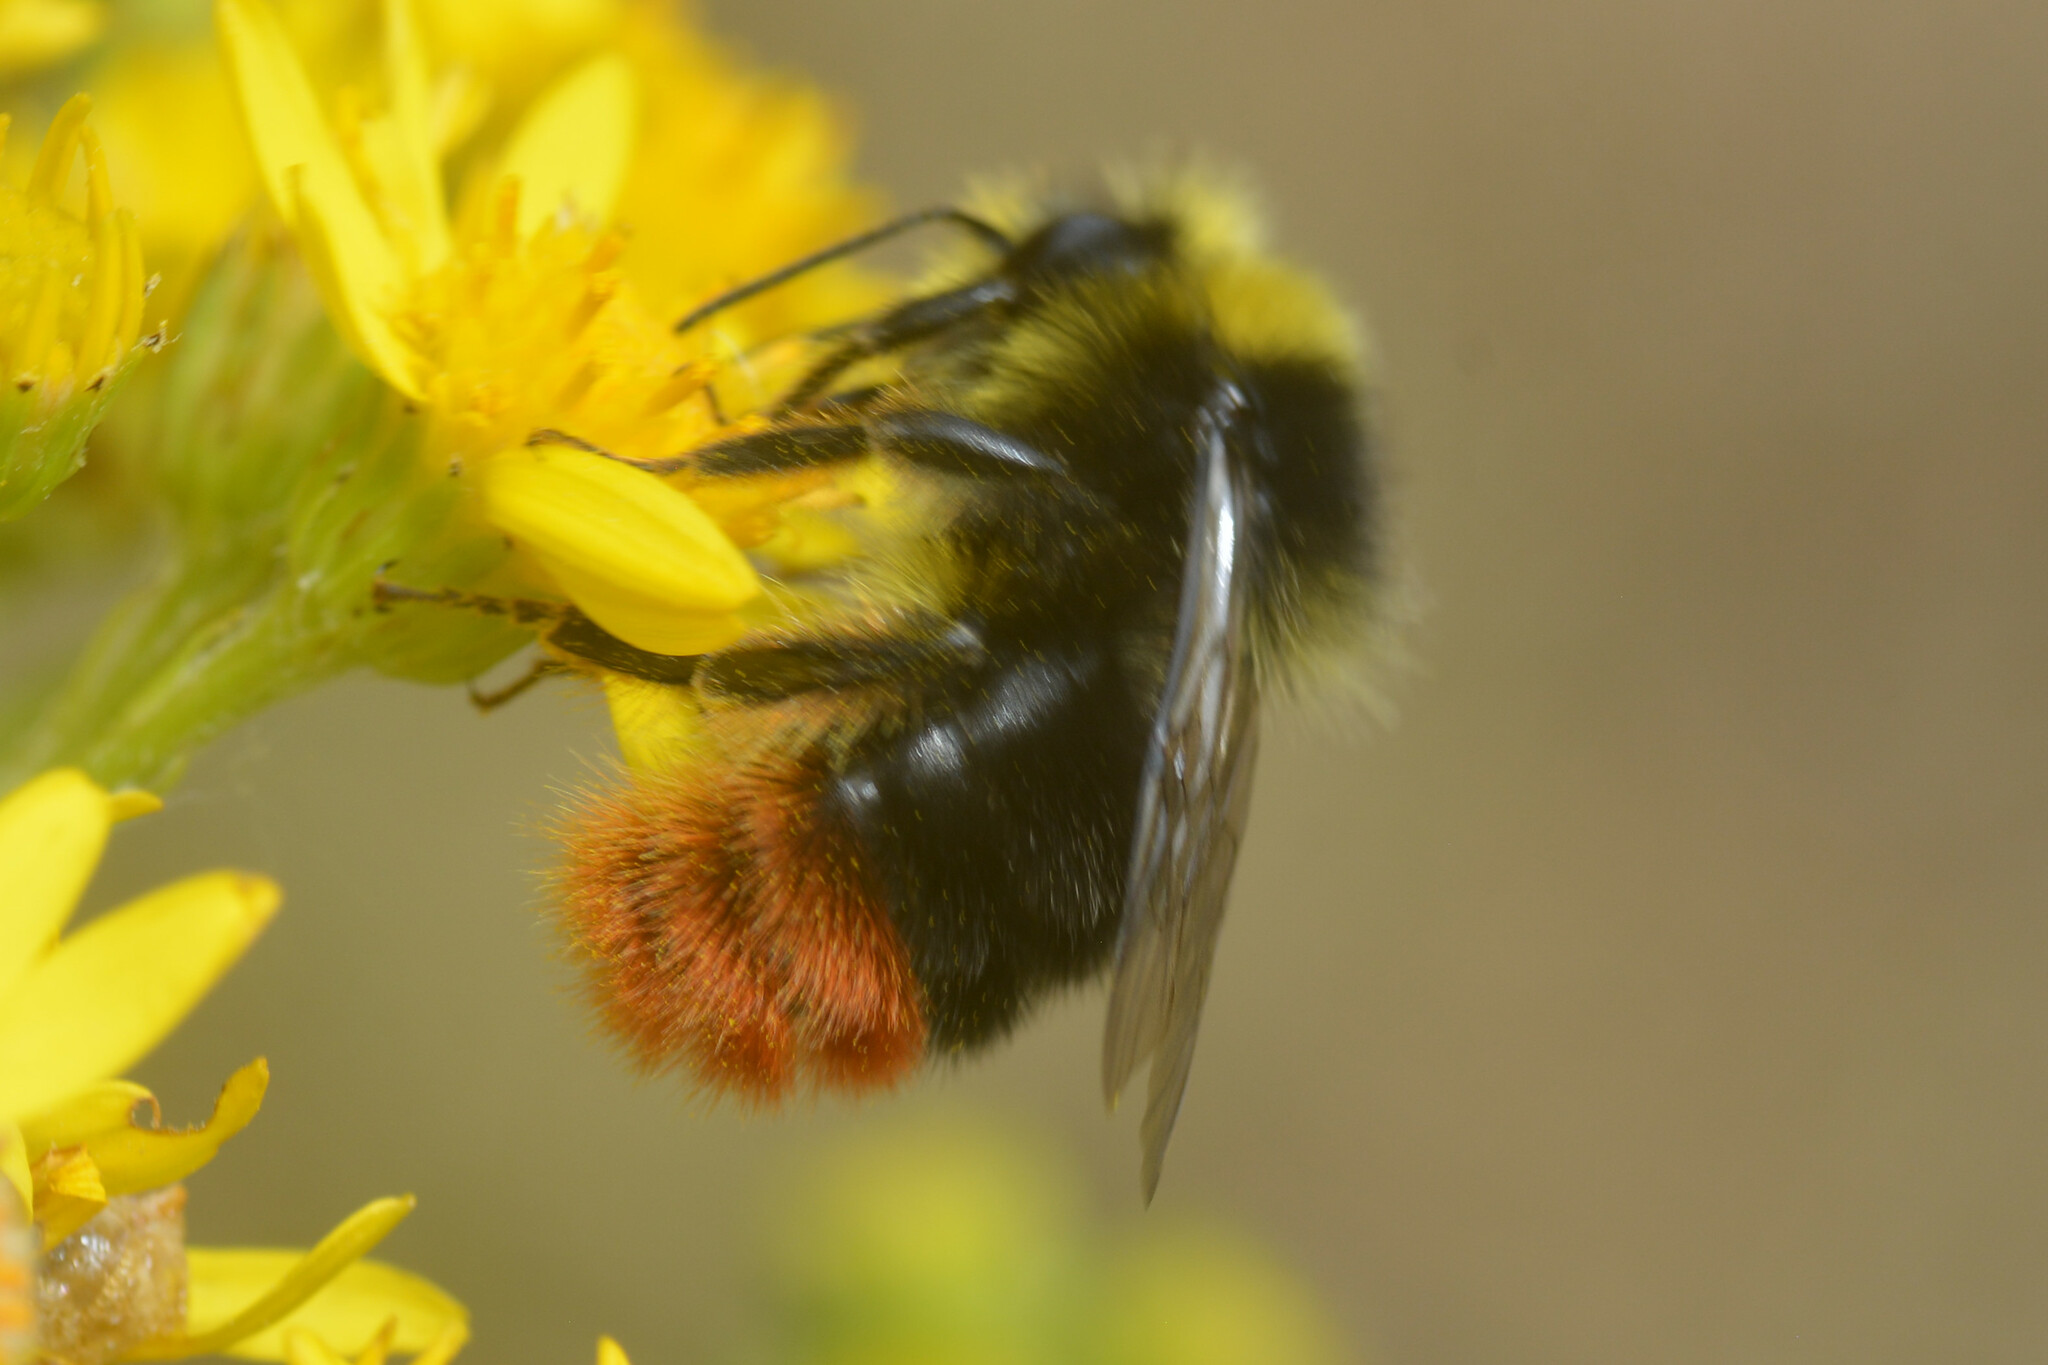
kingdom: Animalia
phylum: Arthropoda
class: Insecta
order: Hymenoptera
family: Apidae
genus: Bombus
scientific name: Bombus lapidarius
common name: Large red-tailed humble-bee
